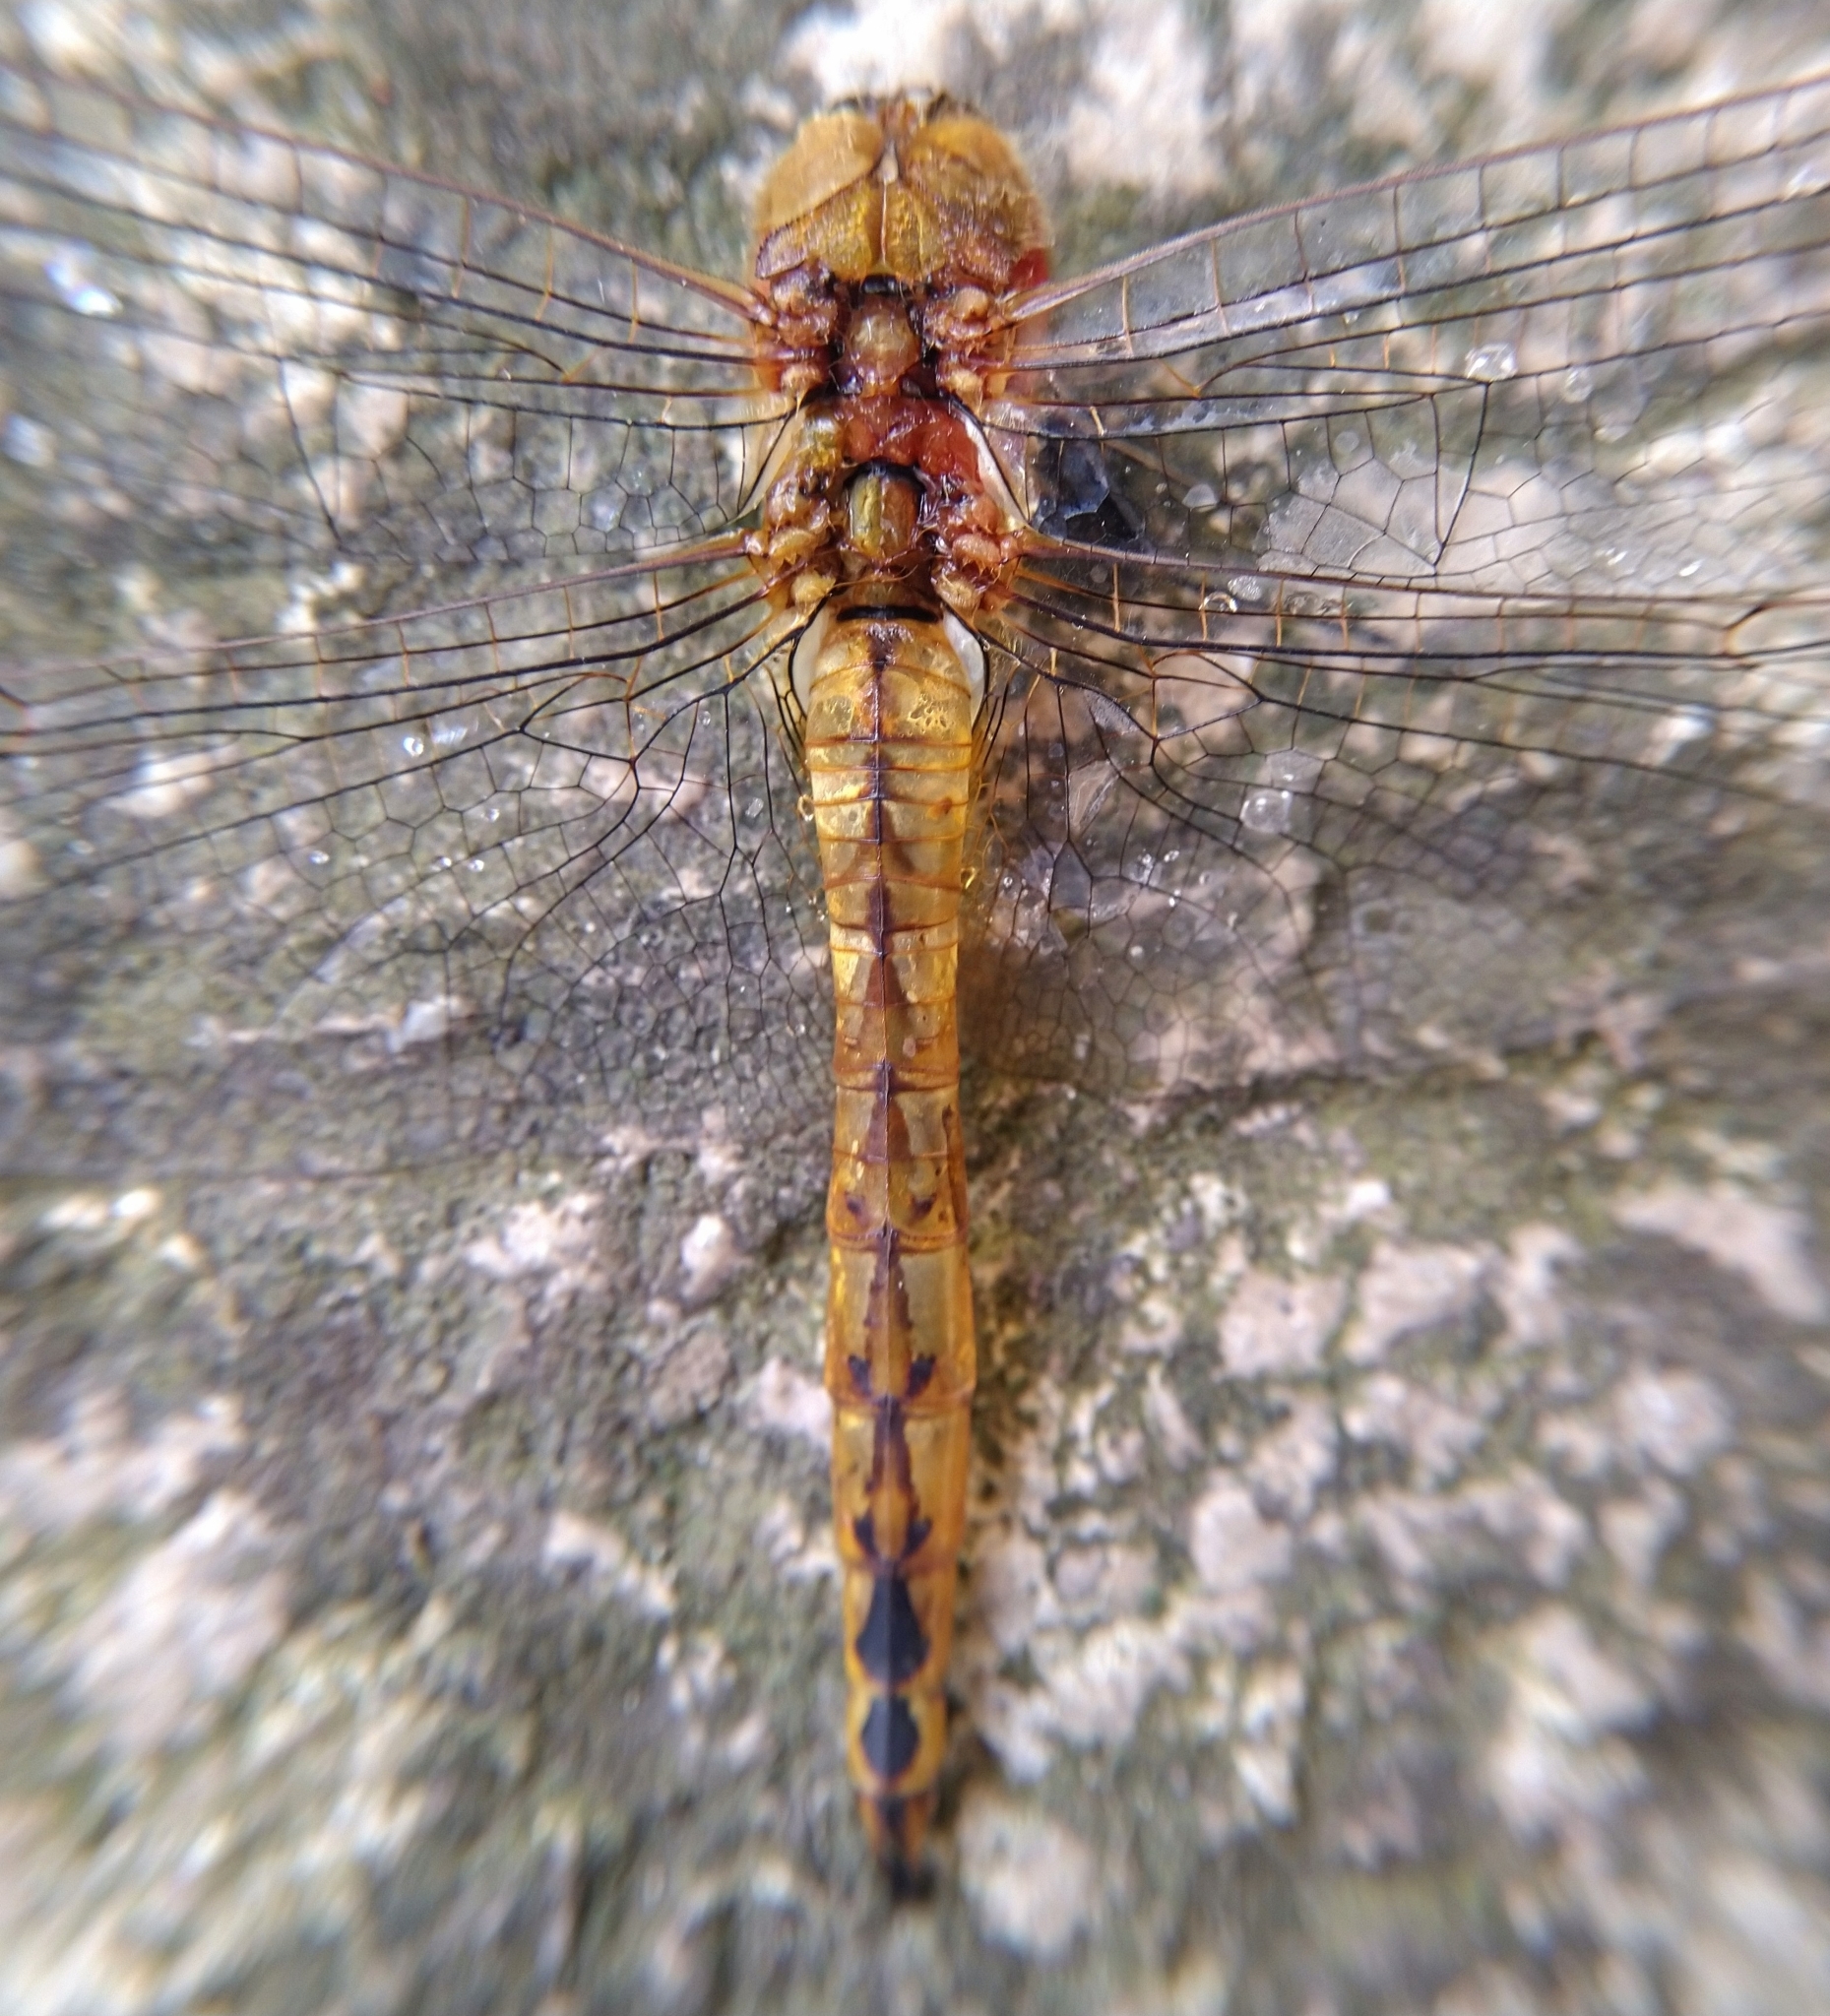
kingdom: Animalia
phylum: Arthropoda
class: Insecta
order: Odonata
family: Libellulidae
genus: Pantala
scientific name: Pantala flavescens
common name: Wandering glider
